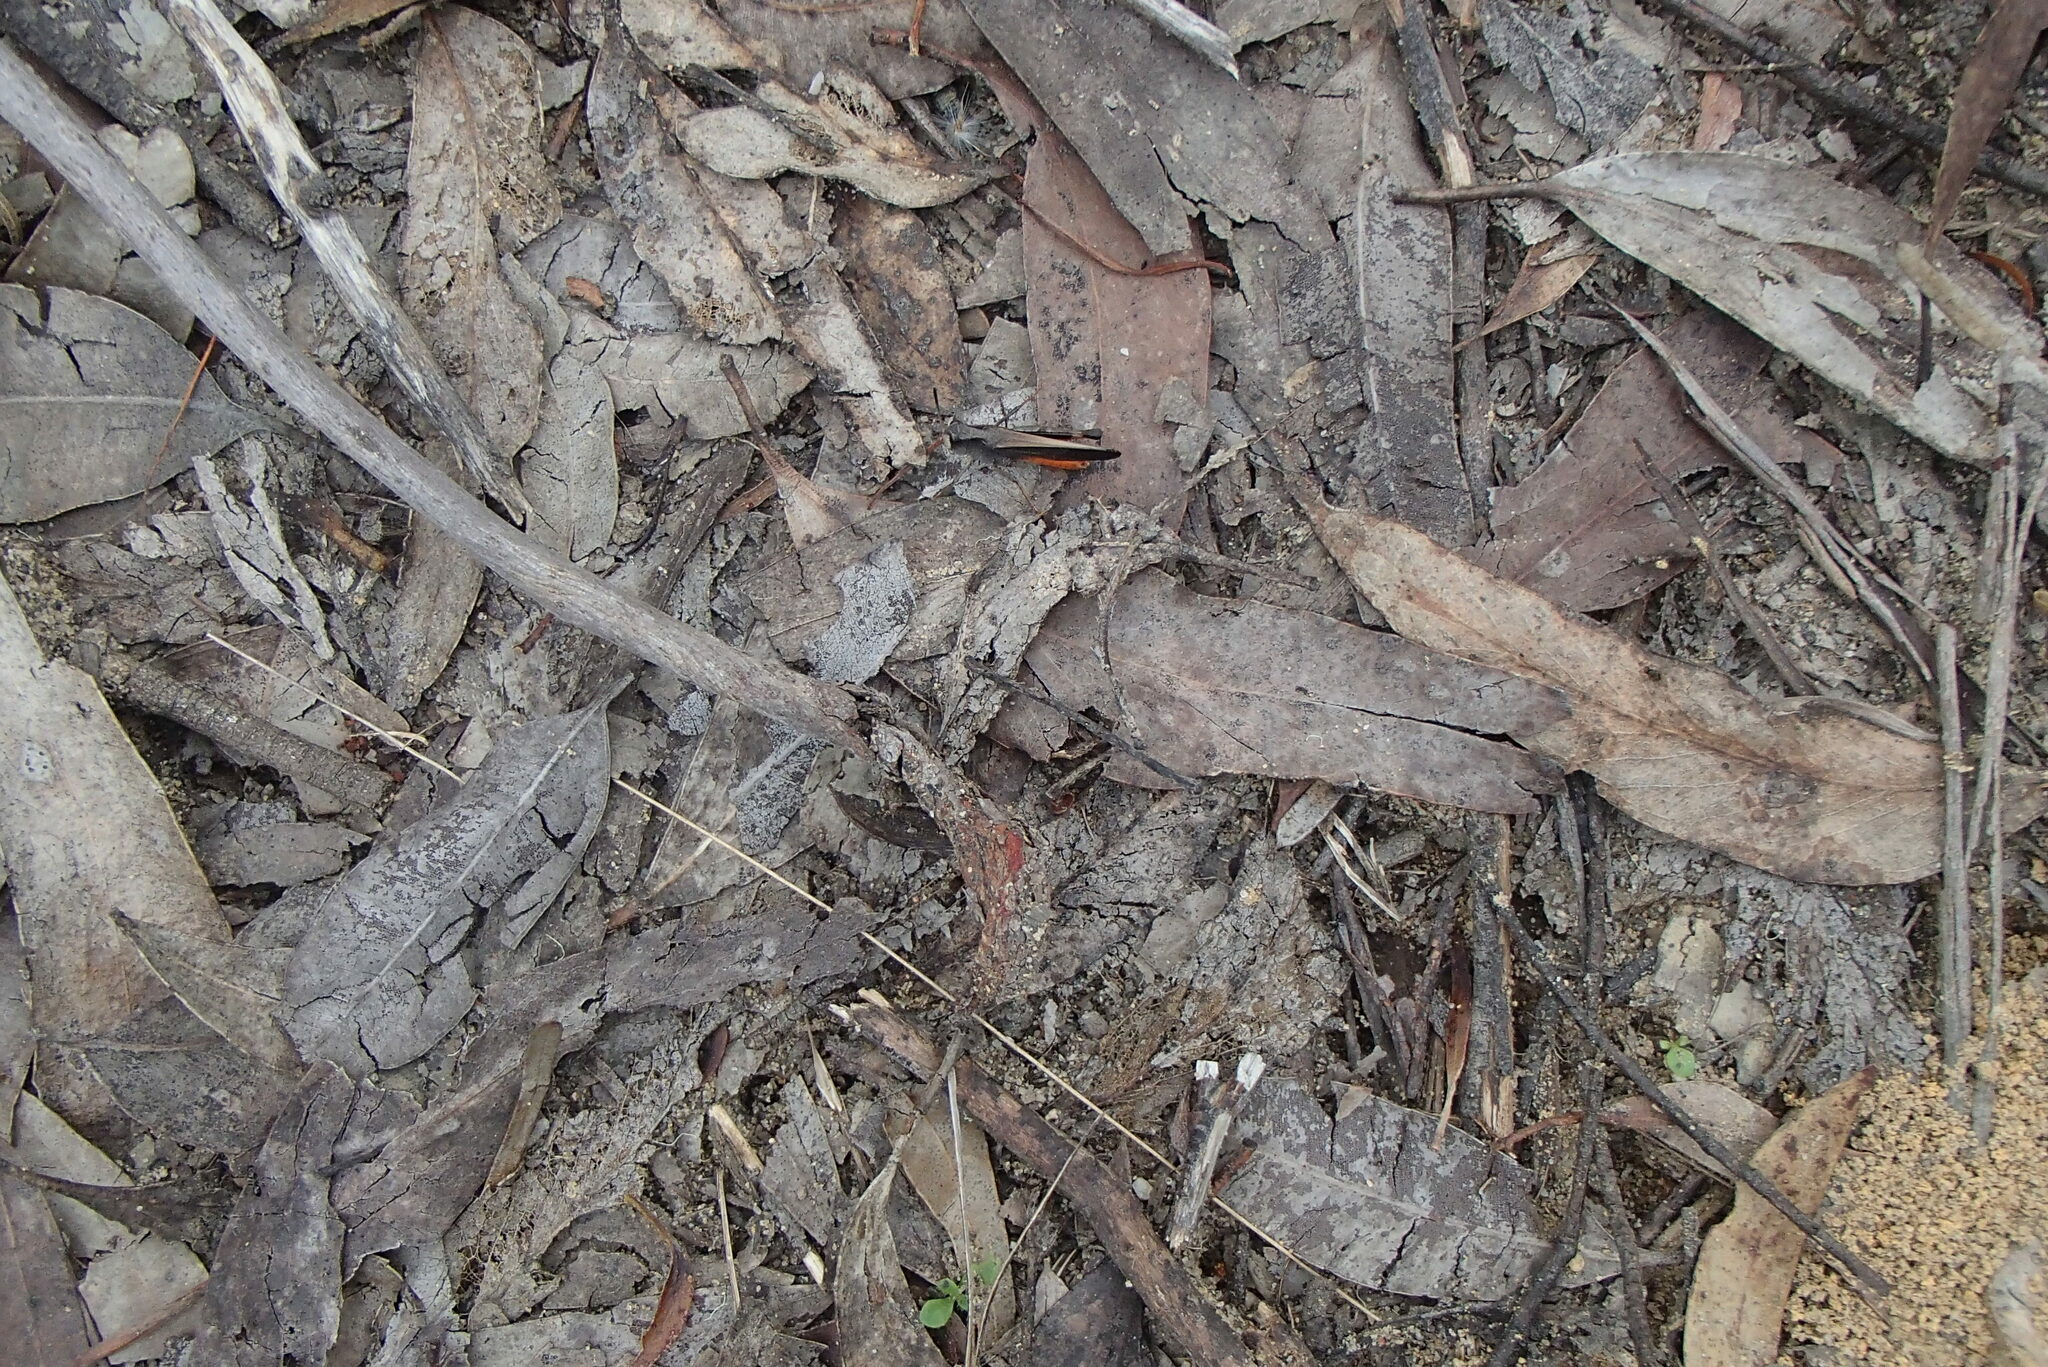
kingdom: Animalia
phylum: Arthropoda
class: Insecta
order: Orthoptera
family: Acrididae
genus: Cryptobothrus
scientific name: Cryptobothrus chrysophorus
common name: Golden bandwing
